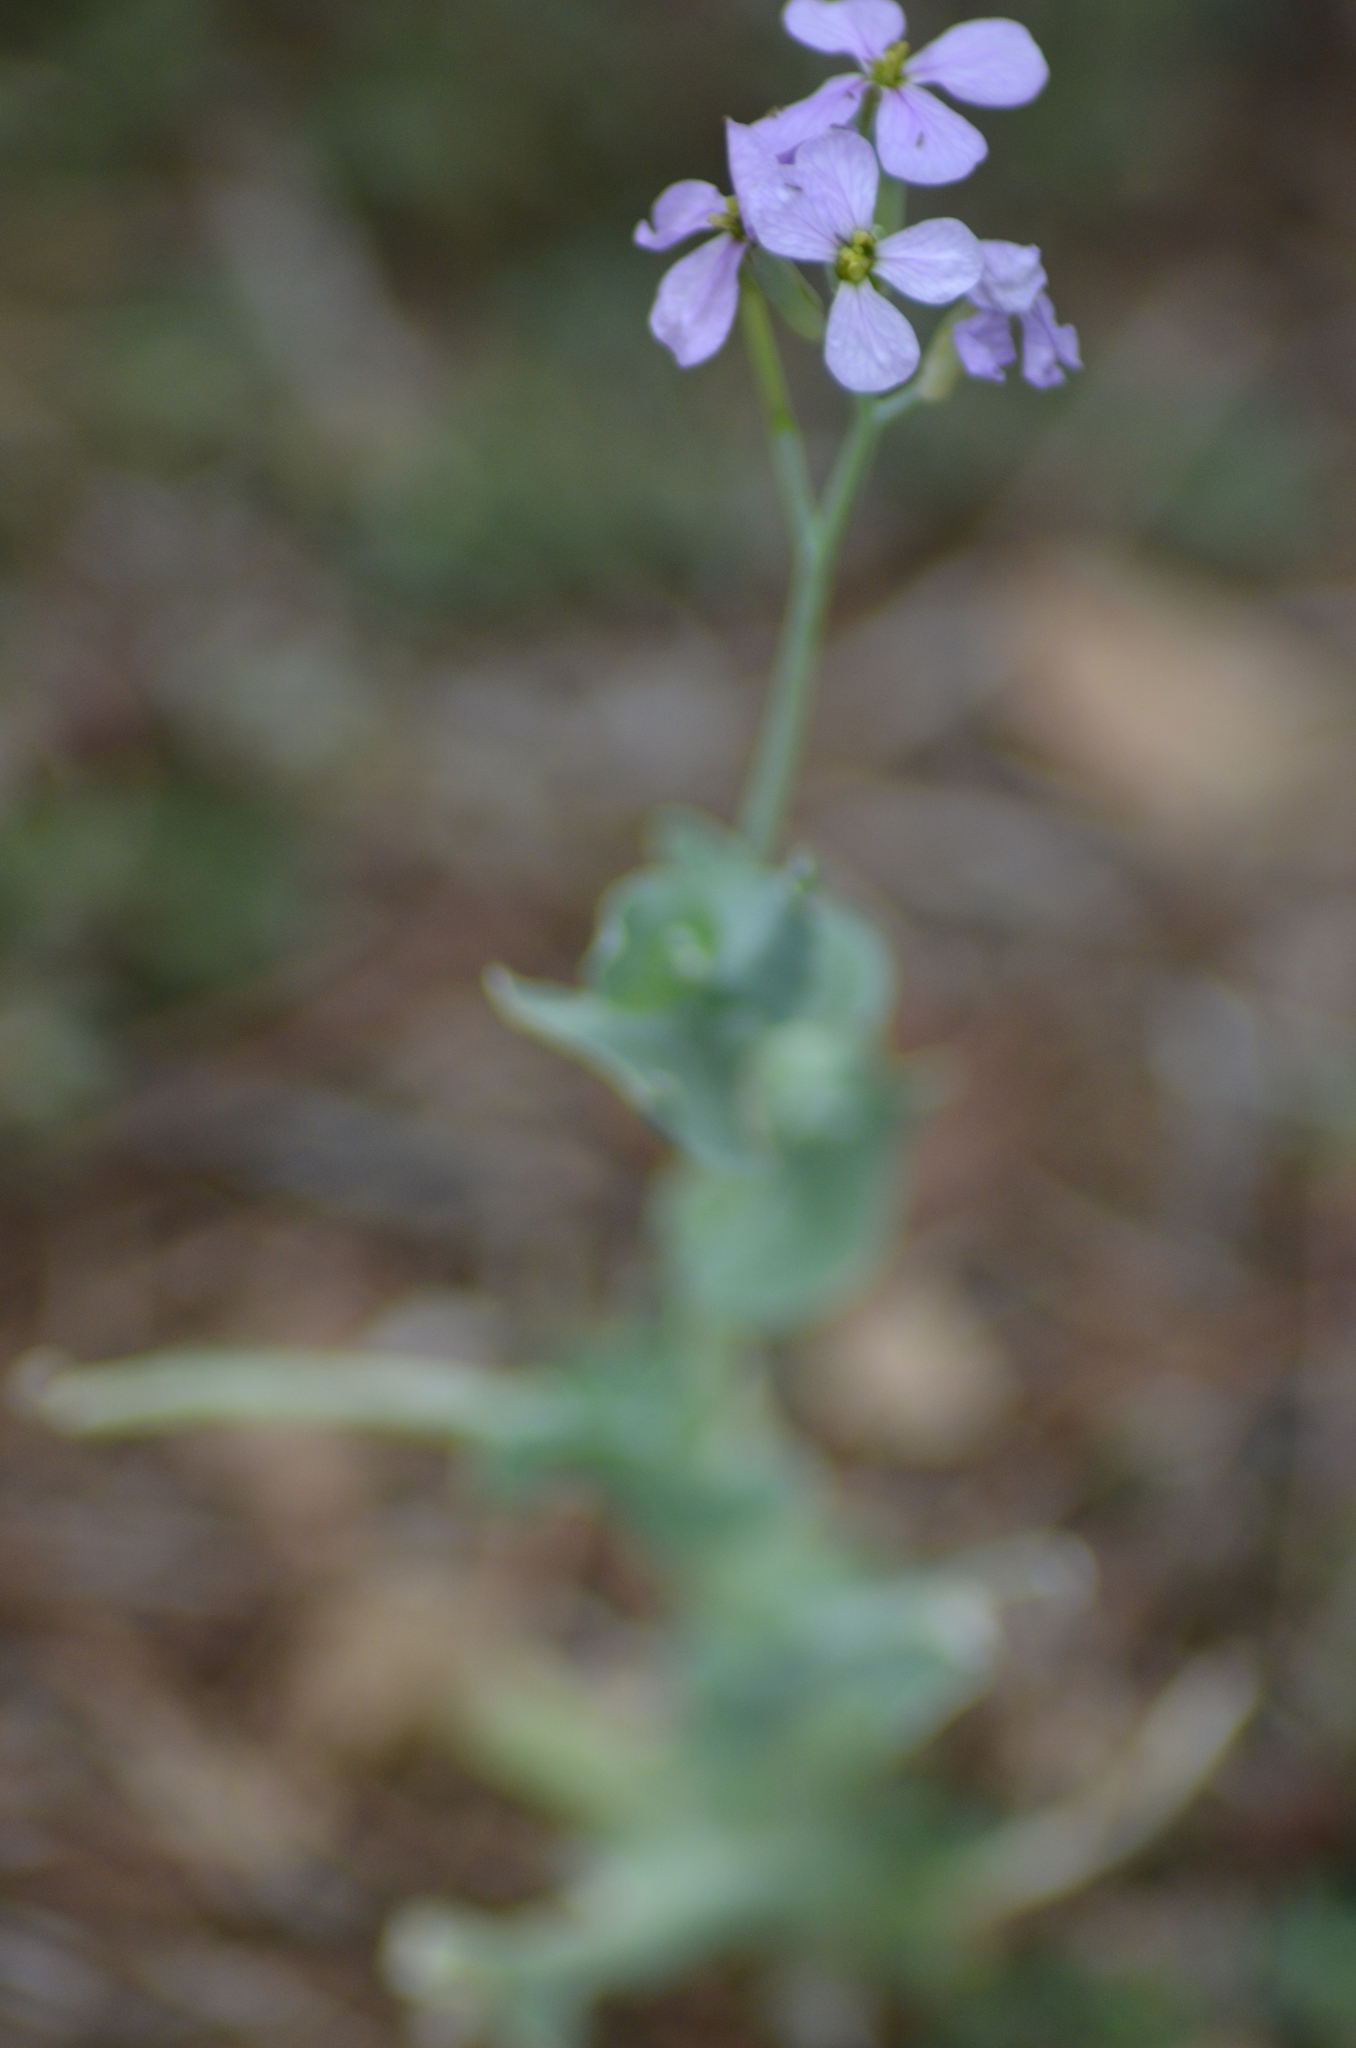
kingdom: Plantae
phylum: Tracheophyta
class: Magnoliopsida
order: Brassicales
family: Brassicaceae
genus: Moricandia
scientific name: Moricandia arvensis
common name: Purple mistress
